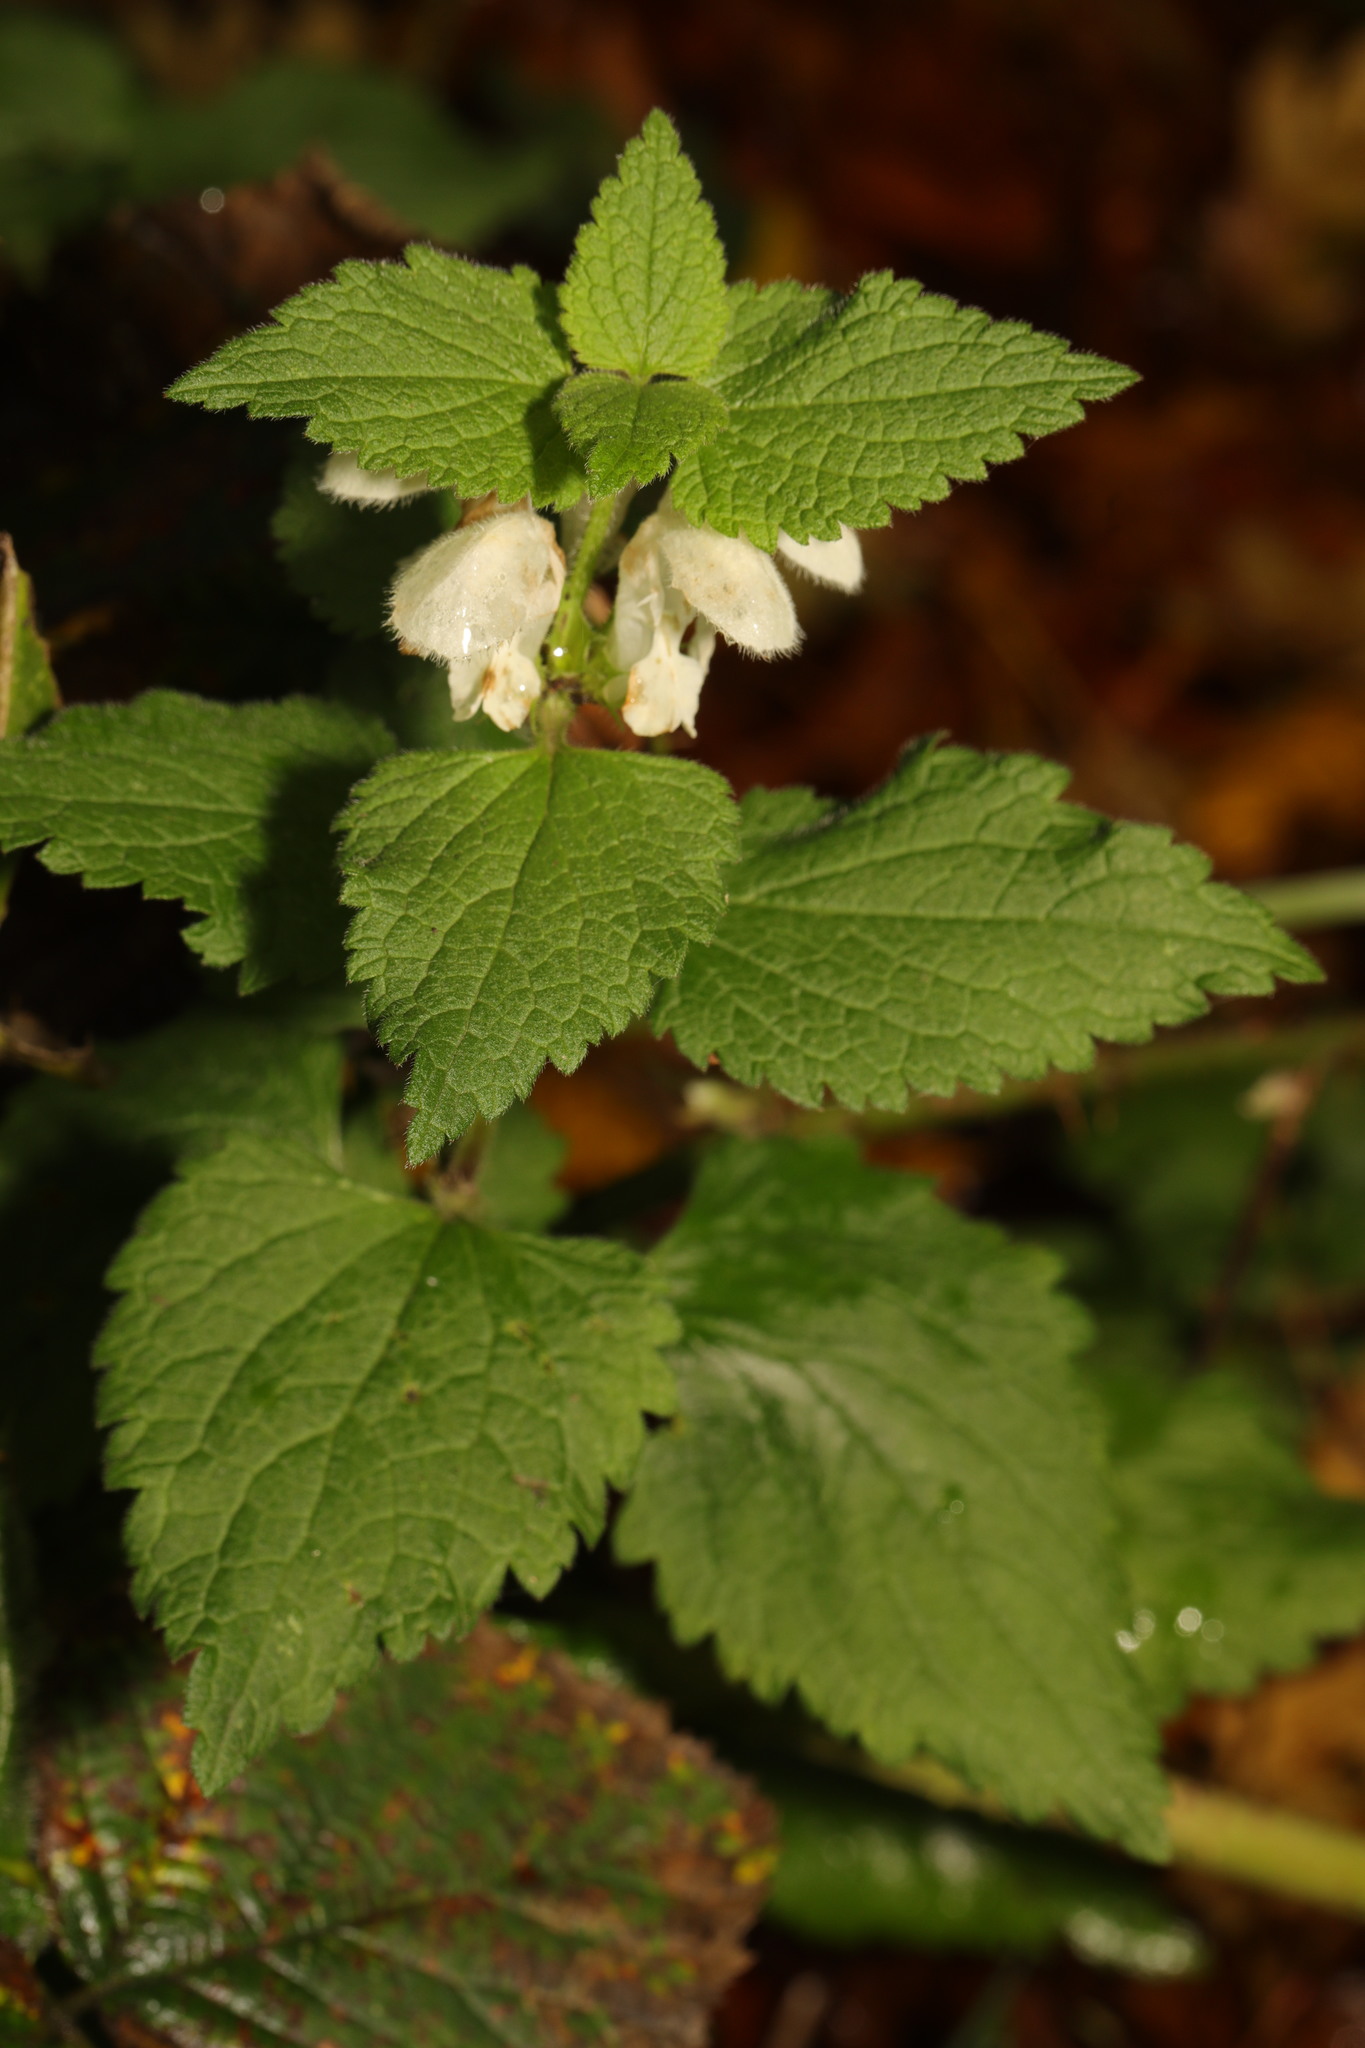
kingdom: Plantae
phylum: Tracheophyta
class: Magnoliopsida
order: Lamiales
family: Lamiaceae
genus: Lamium
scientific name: Lamium album
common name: White dead-nettle
